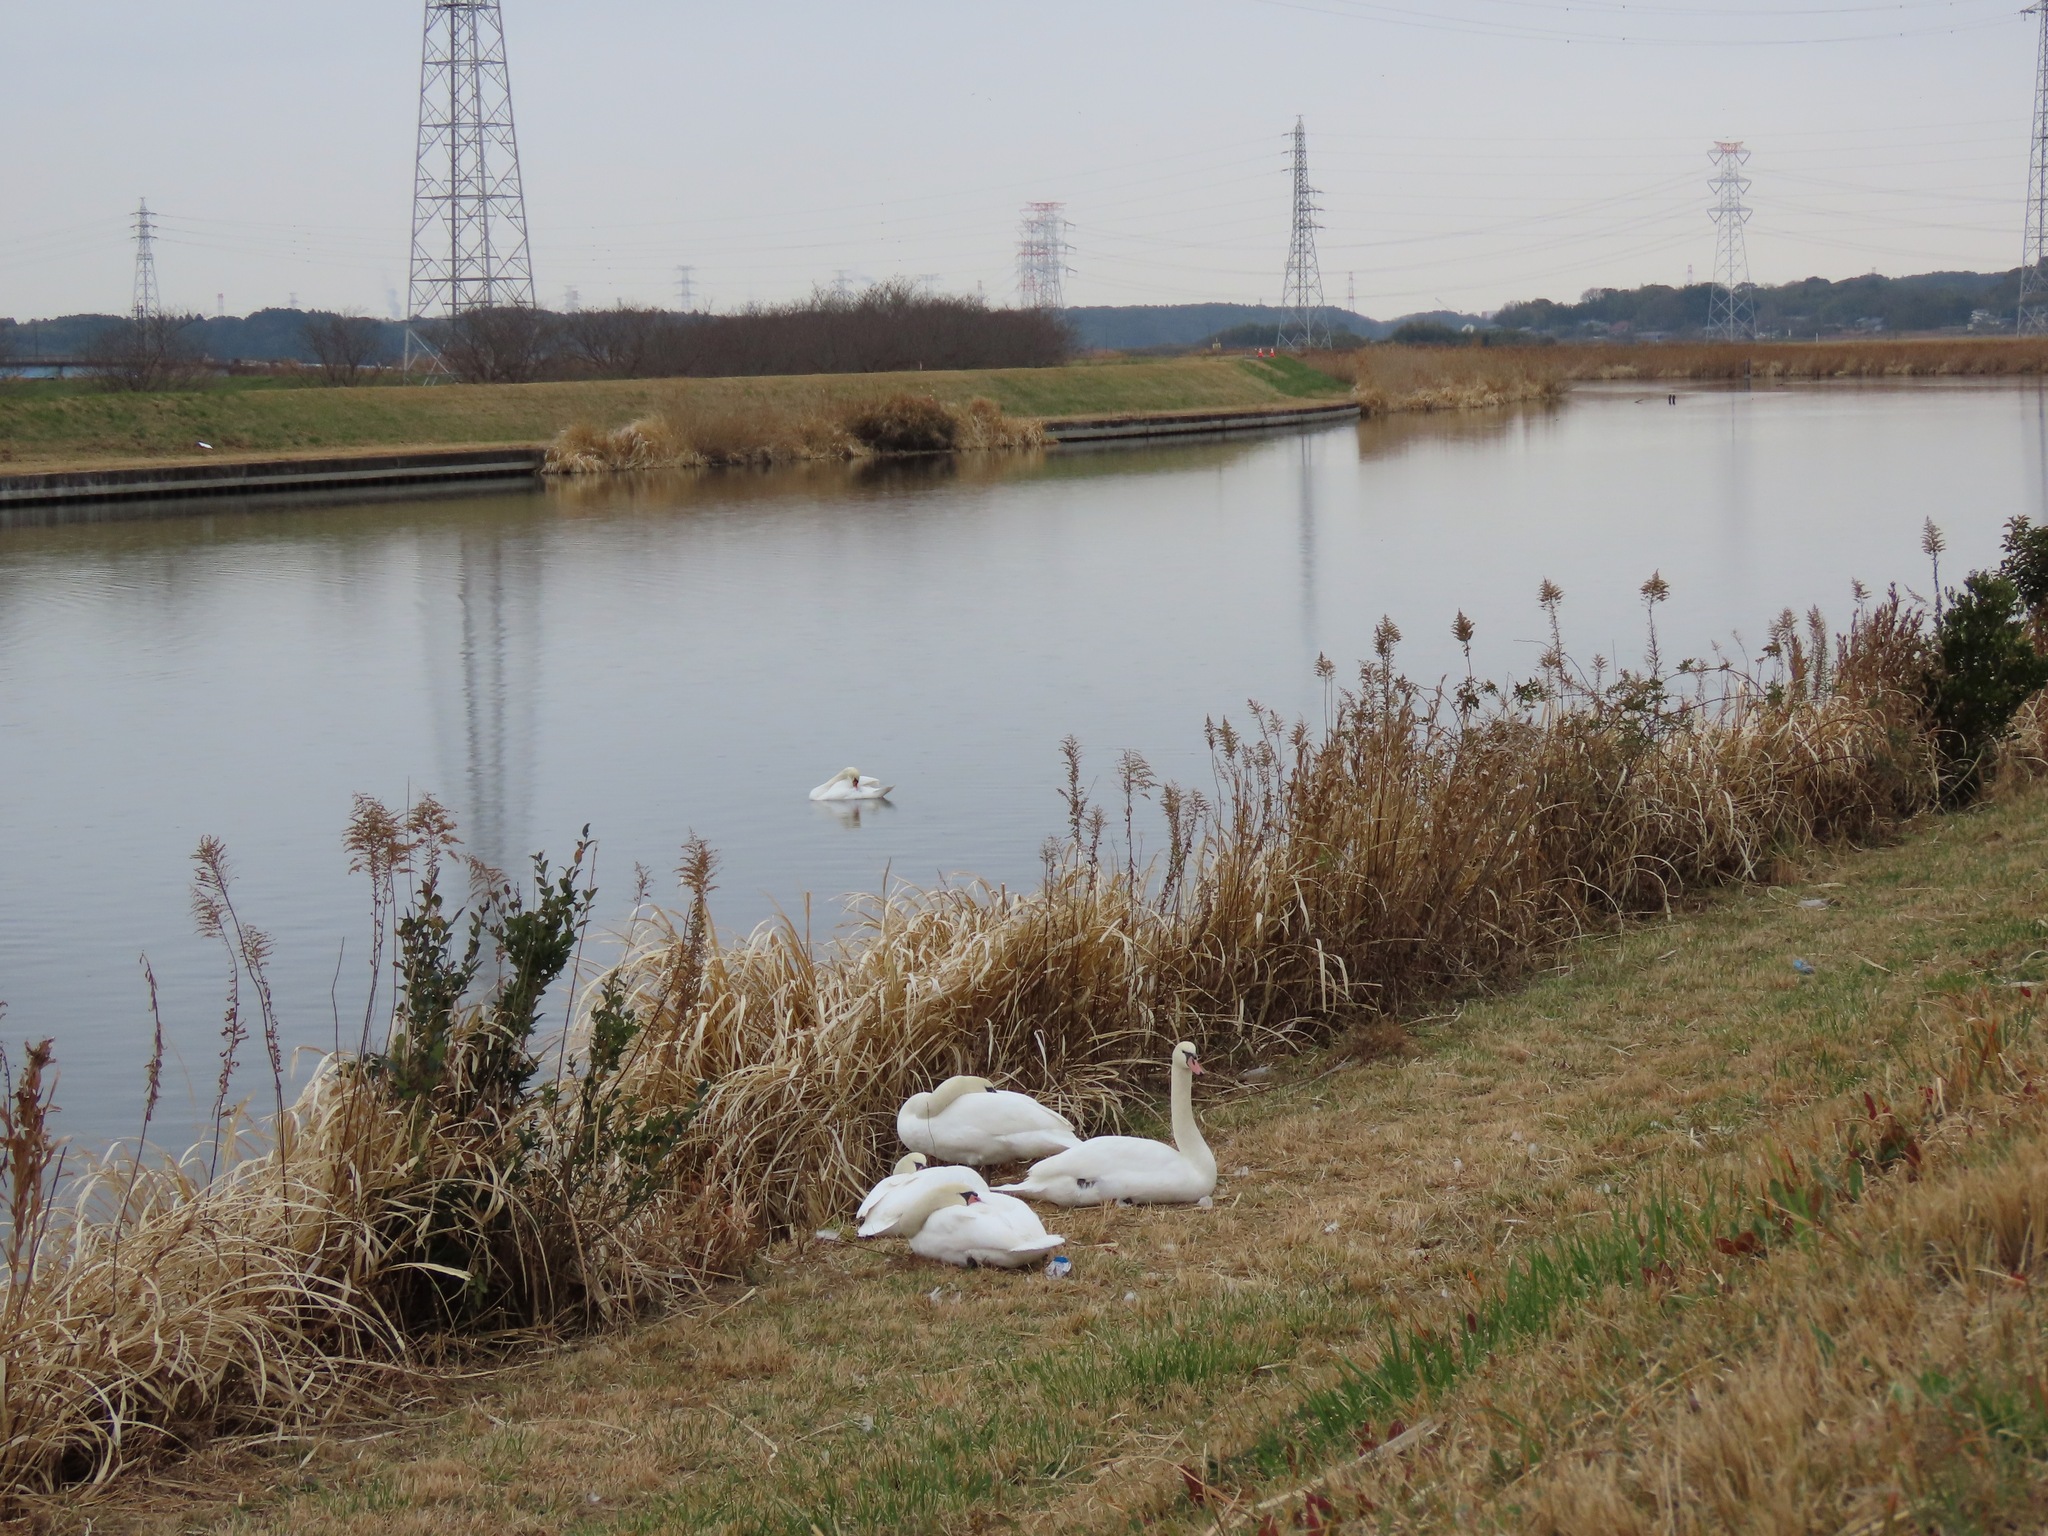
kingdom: Animalia
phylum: Chordata
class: Aves
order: Anseriformes
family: Anatidae
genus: Cygnus
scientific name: Cygnus olor
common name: Mute swan
